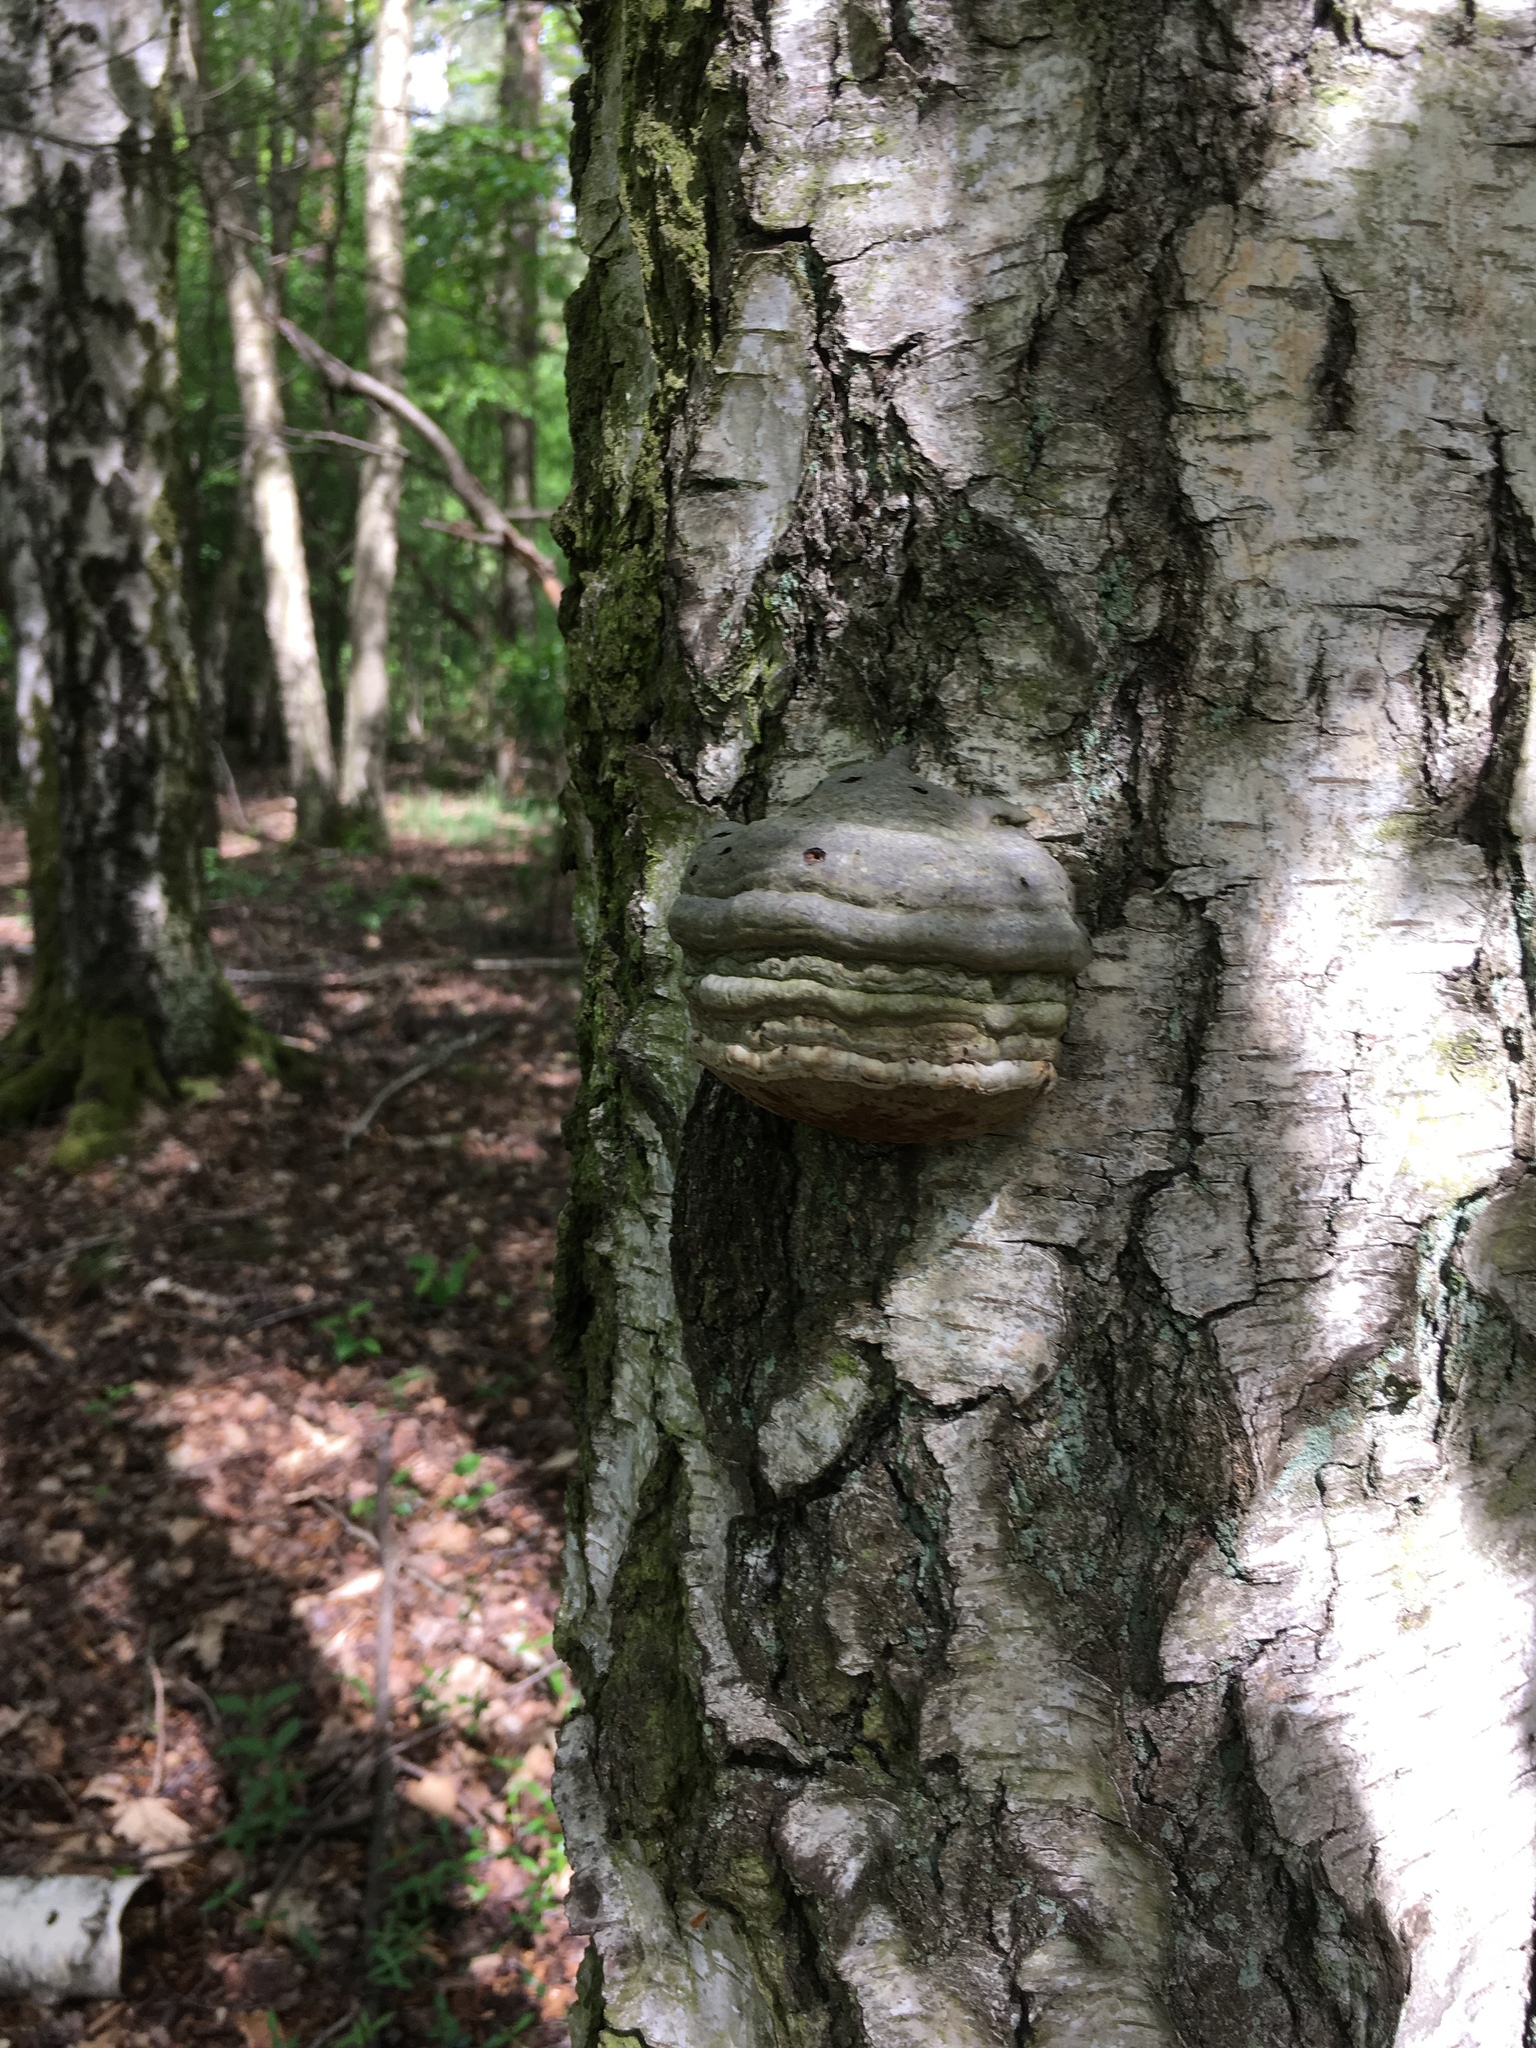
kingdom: Fungi
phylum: Basidiomycota
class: Agaricomycetes
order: Polyporales
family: Polyporaceae
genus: Fomes
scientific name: Fomes fomentarius
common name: Hoof fungus
